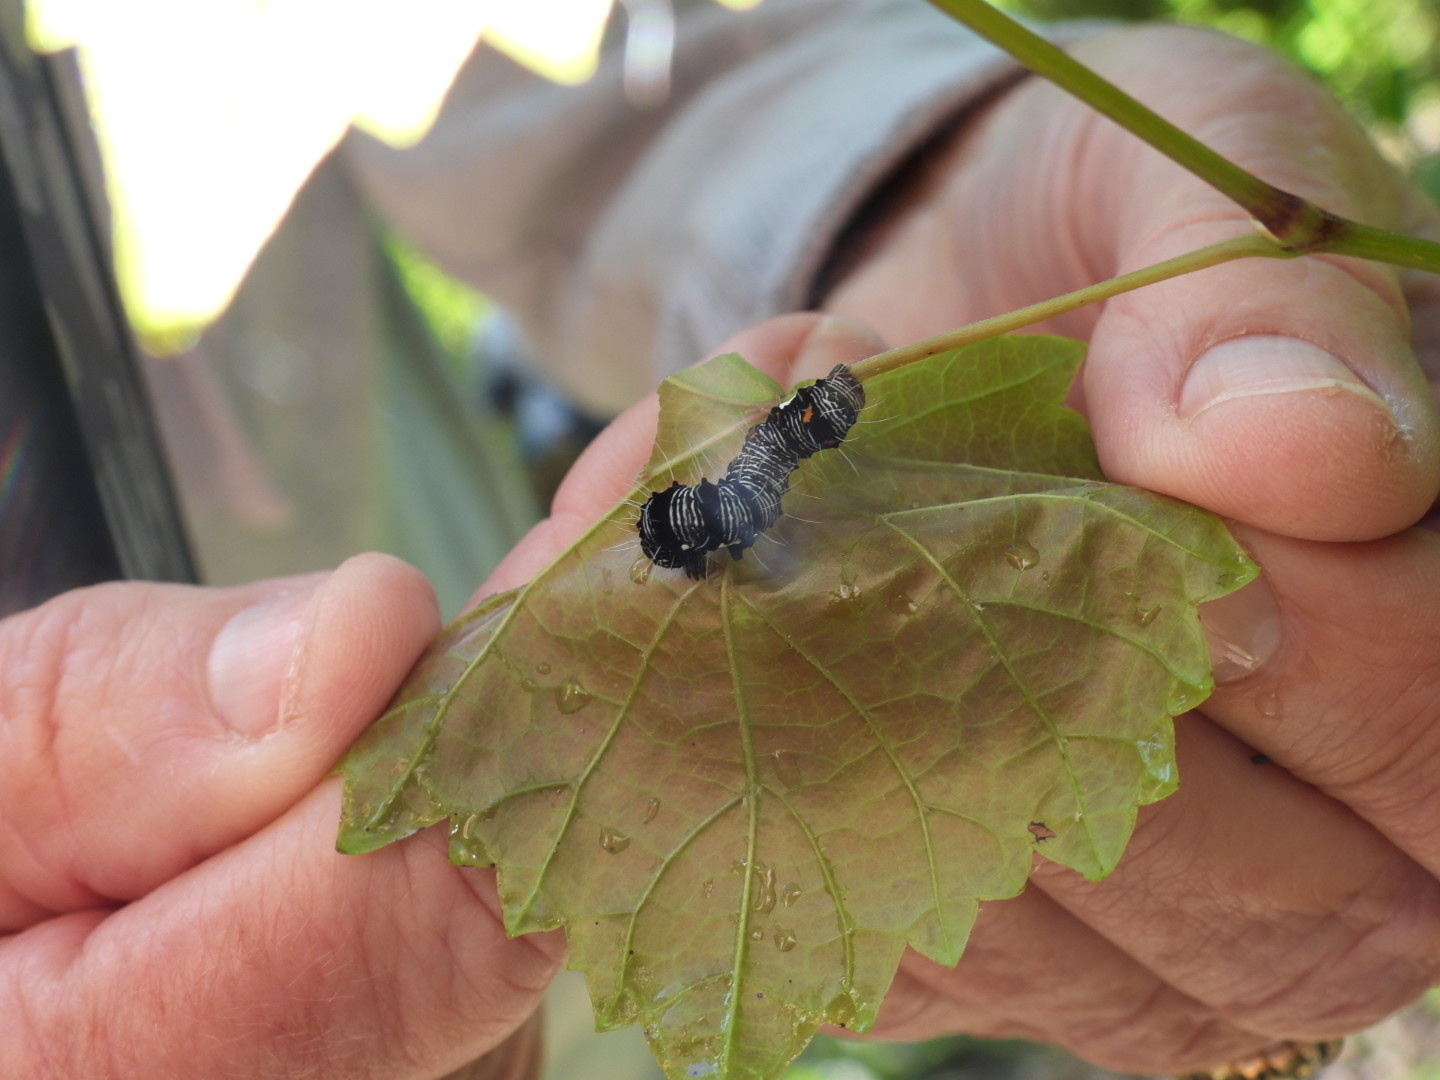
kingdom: Animalia
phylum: Arthropoda
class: Insecta
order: Lepidoptera
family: Noctuidae
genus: Alypia
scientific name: Alypia octomaculata
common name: Eight-spotted forester
